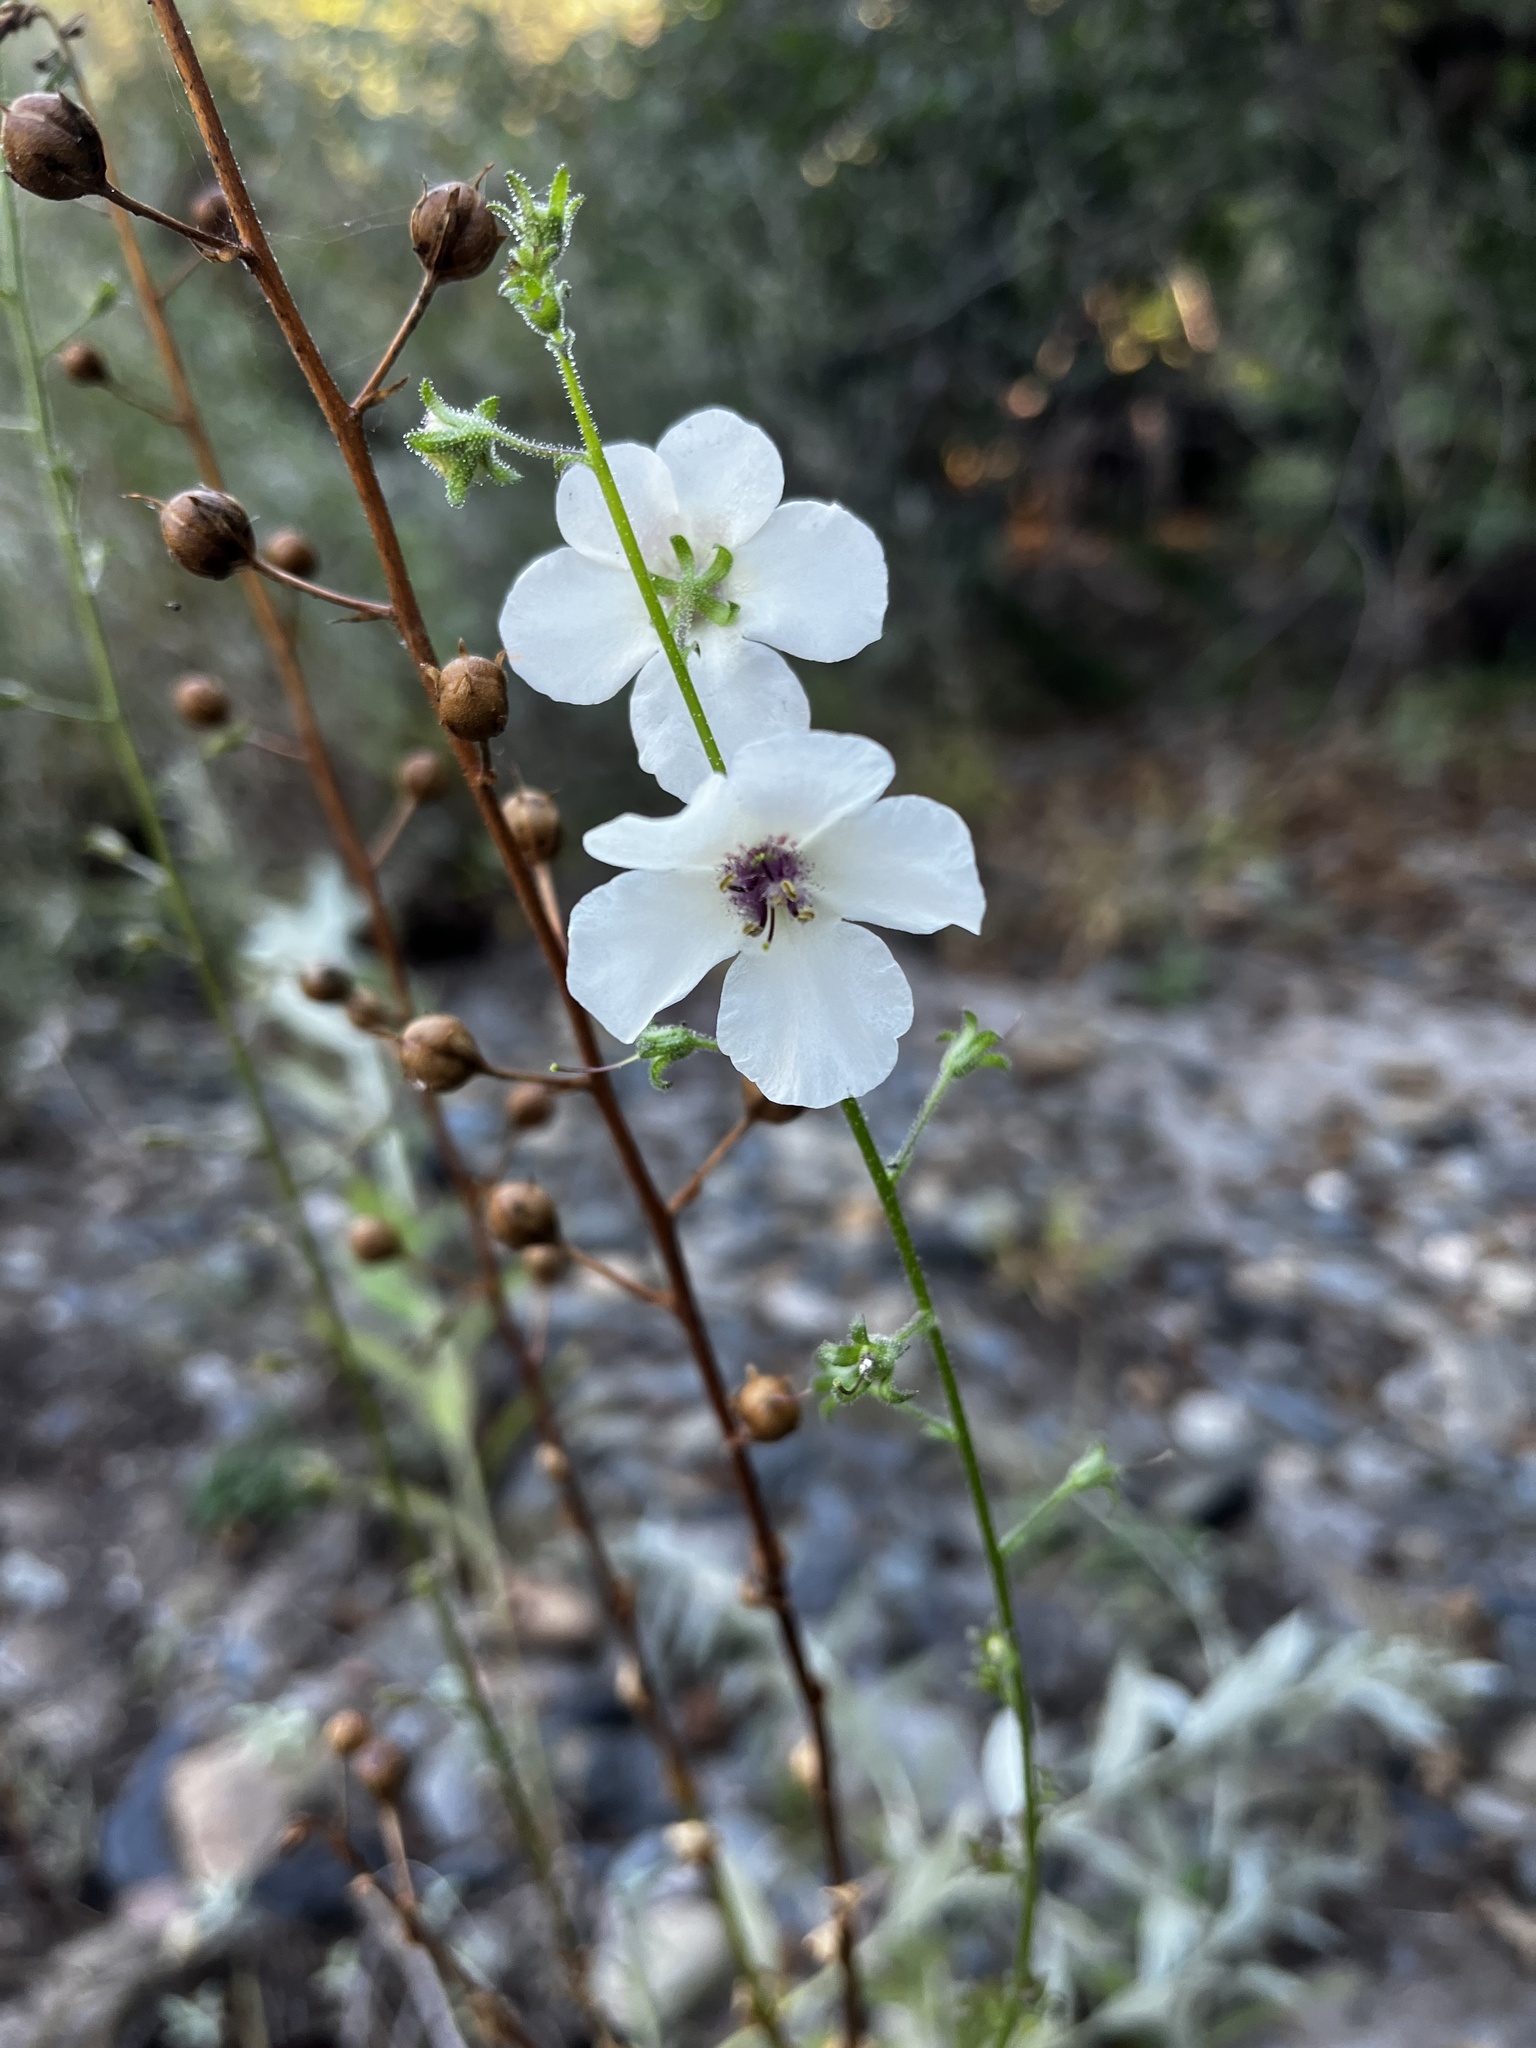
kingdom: Plantae
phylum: Tracheophyta
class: Magnoliopsida
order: Lamiales
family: Scrophulariaceae
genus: Verbascum
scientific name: Verbascum blattaria
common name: Moth mullein
